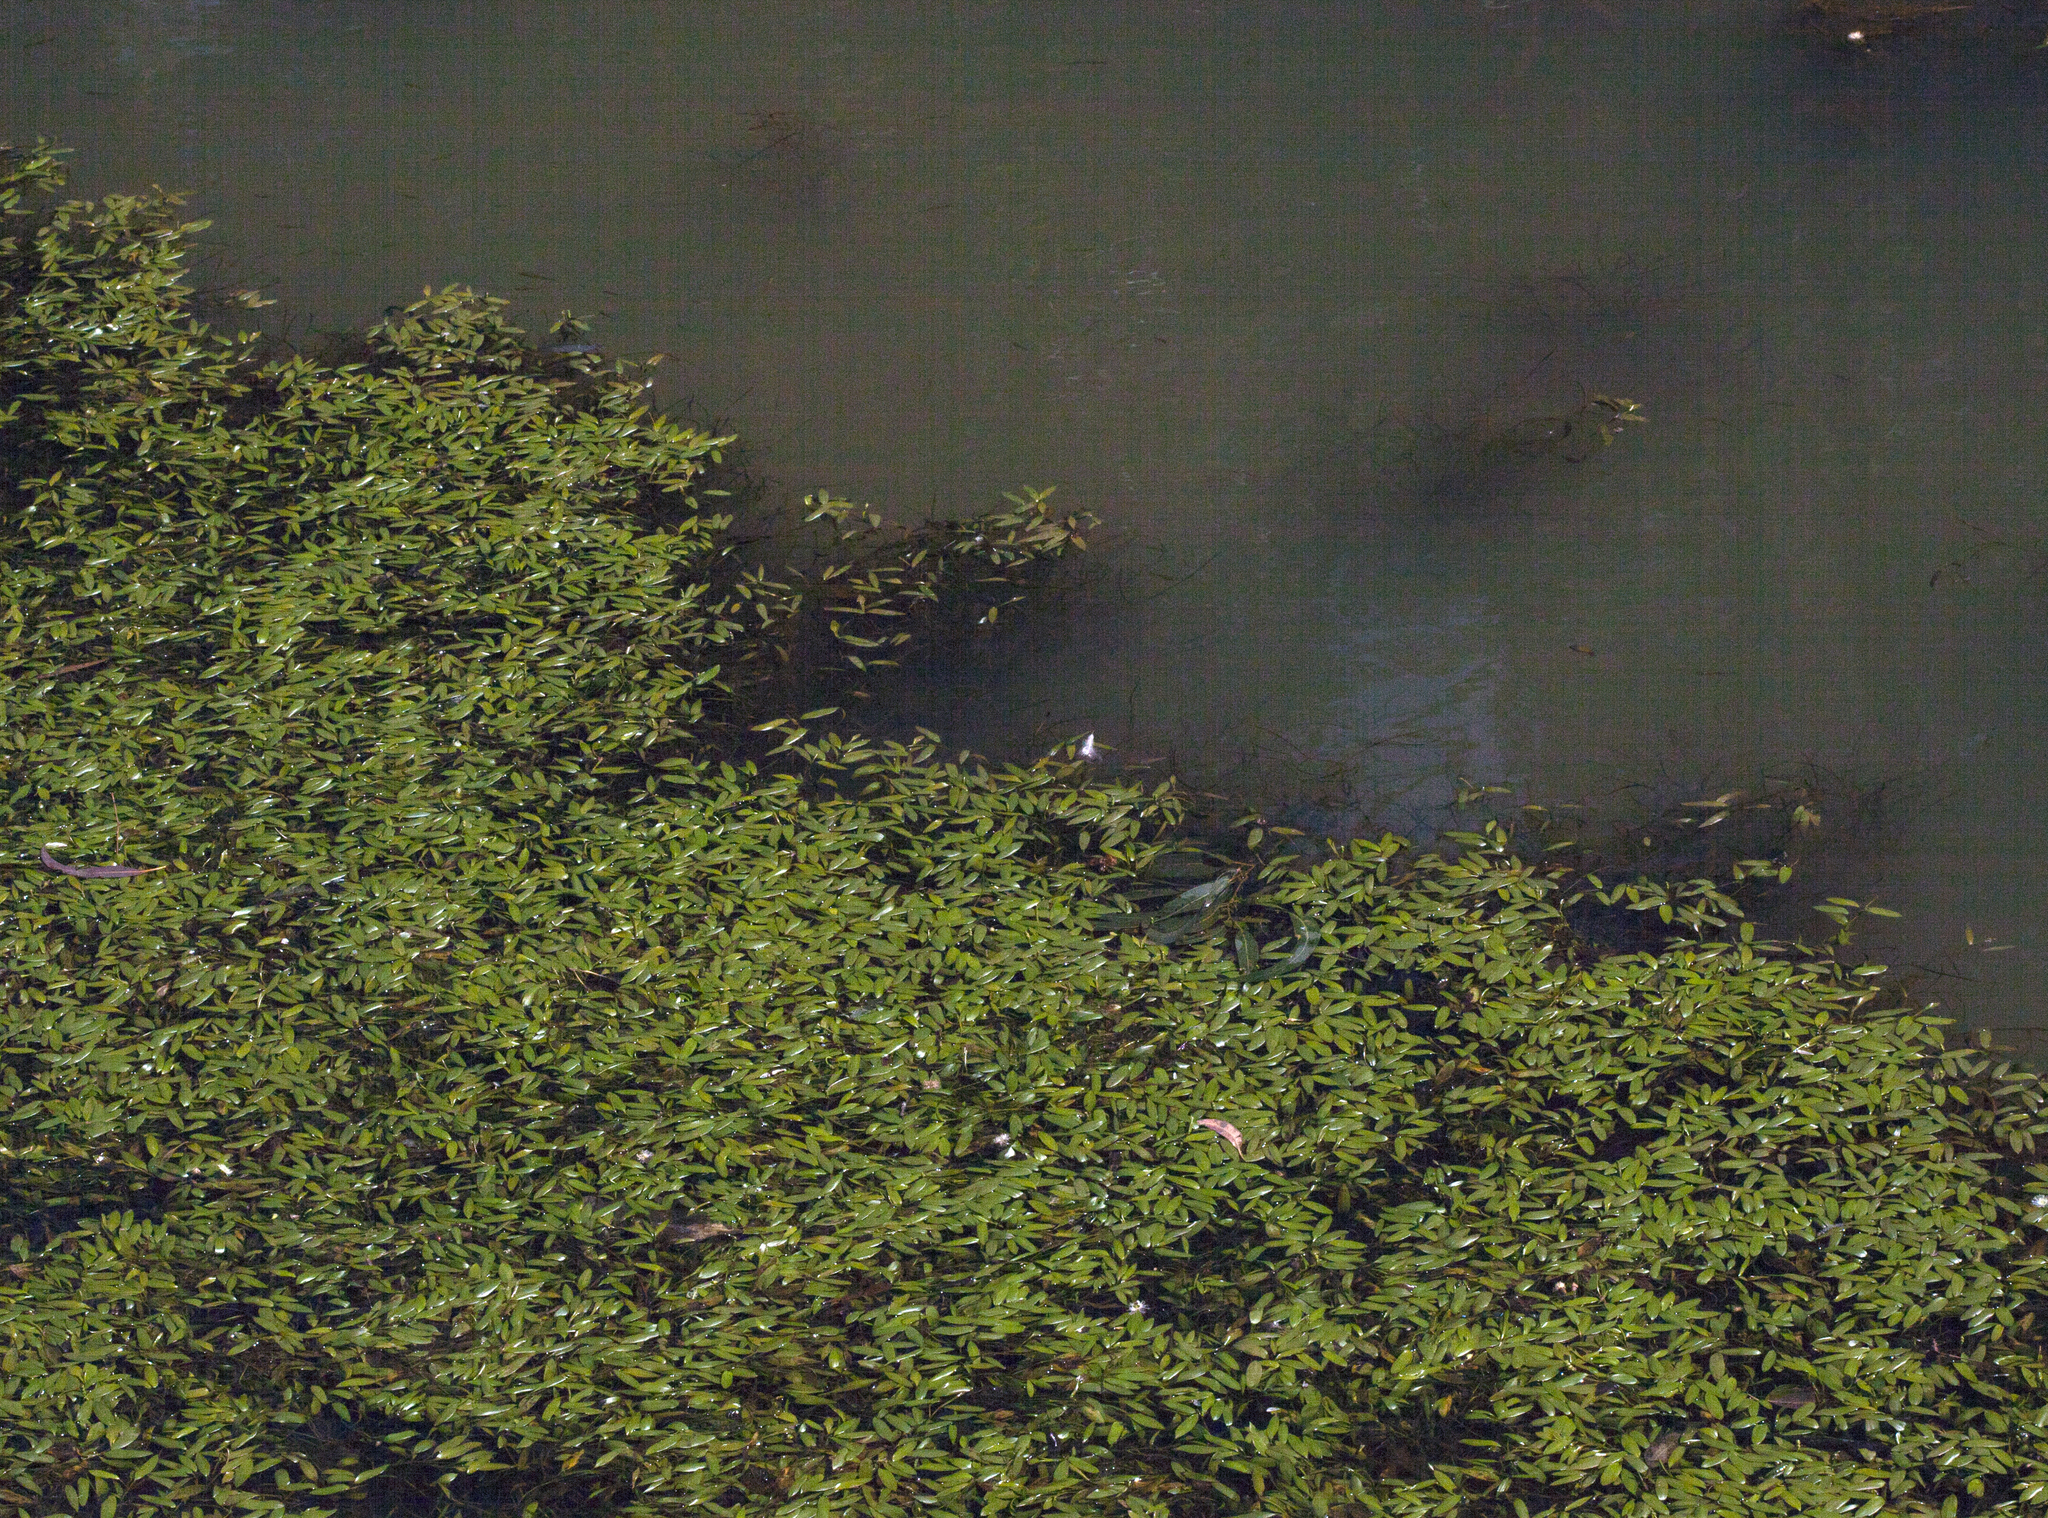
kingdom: Plantae
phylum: Tracheophyta
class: Liliopsida
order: Alismatales
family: Potamogetonaceae
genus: Potamogeton
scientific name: Potamogeton octandrus
